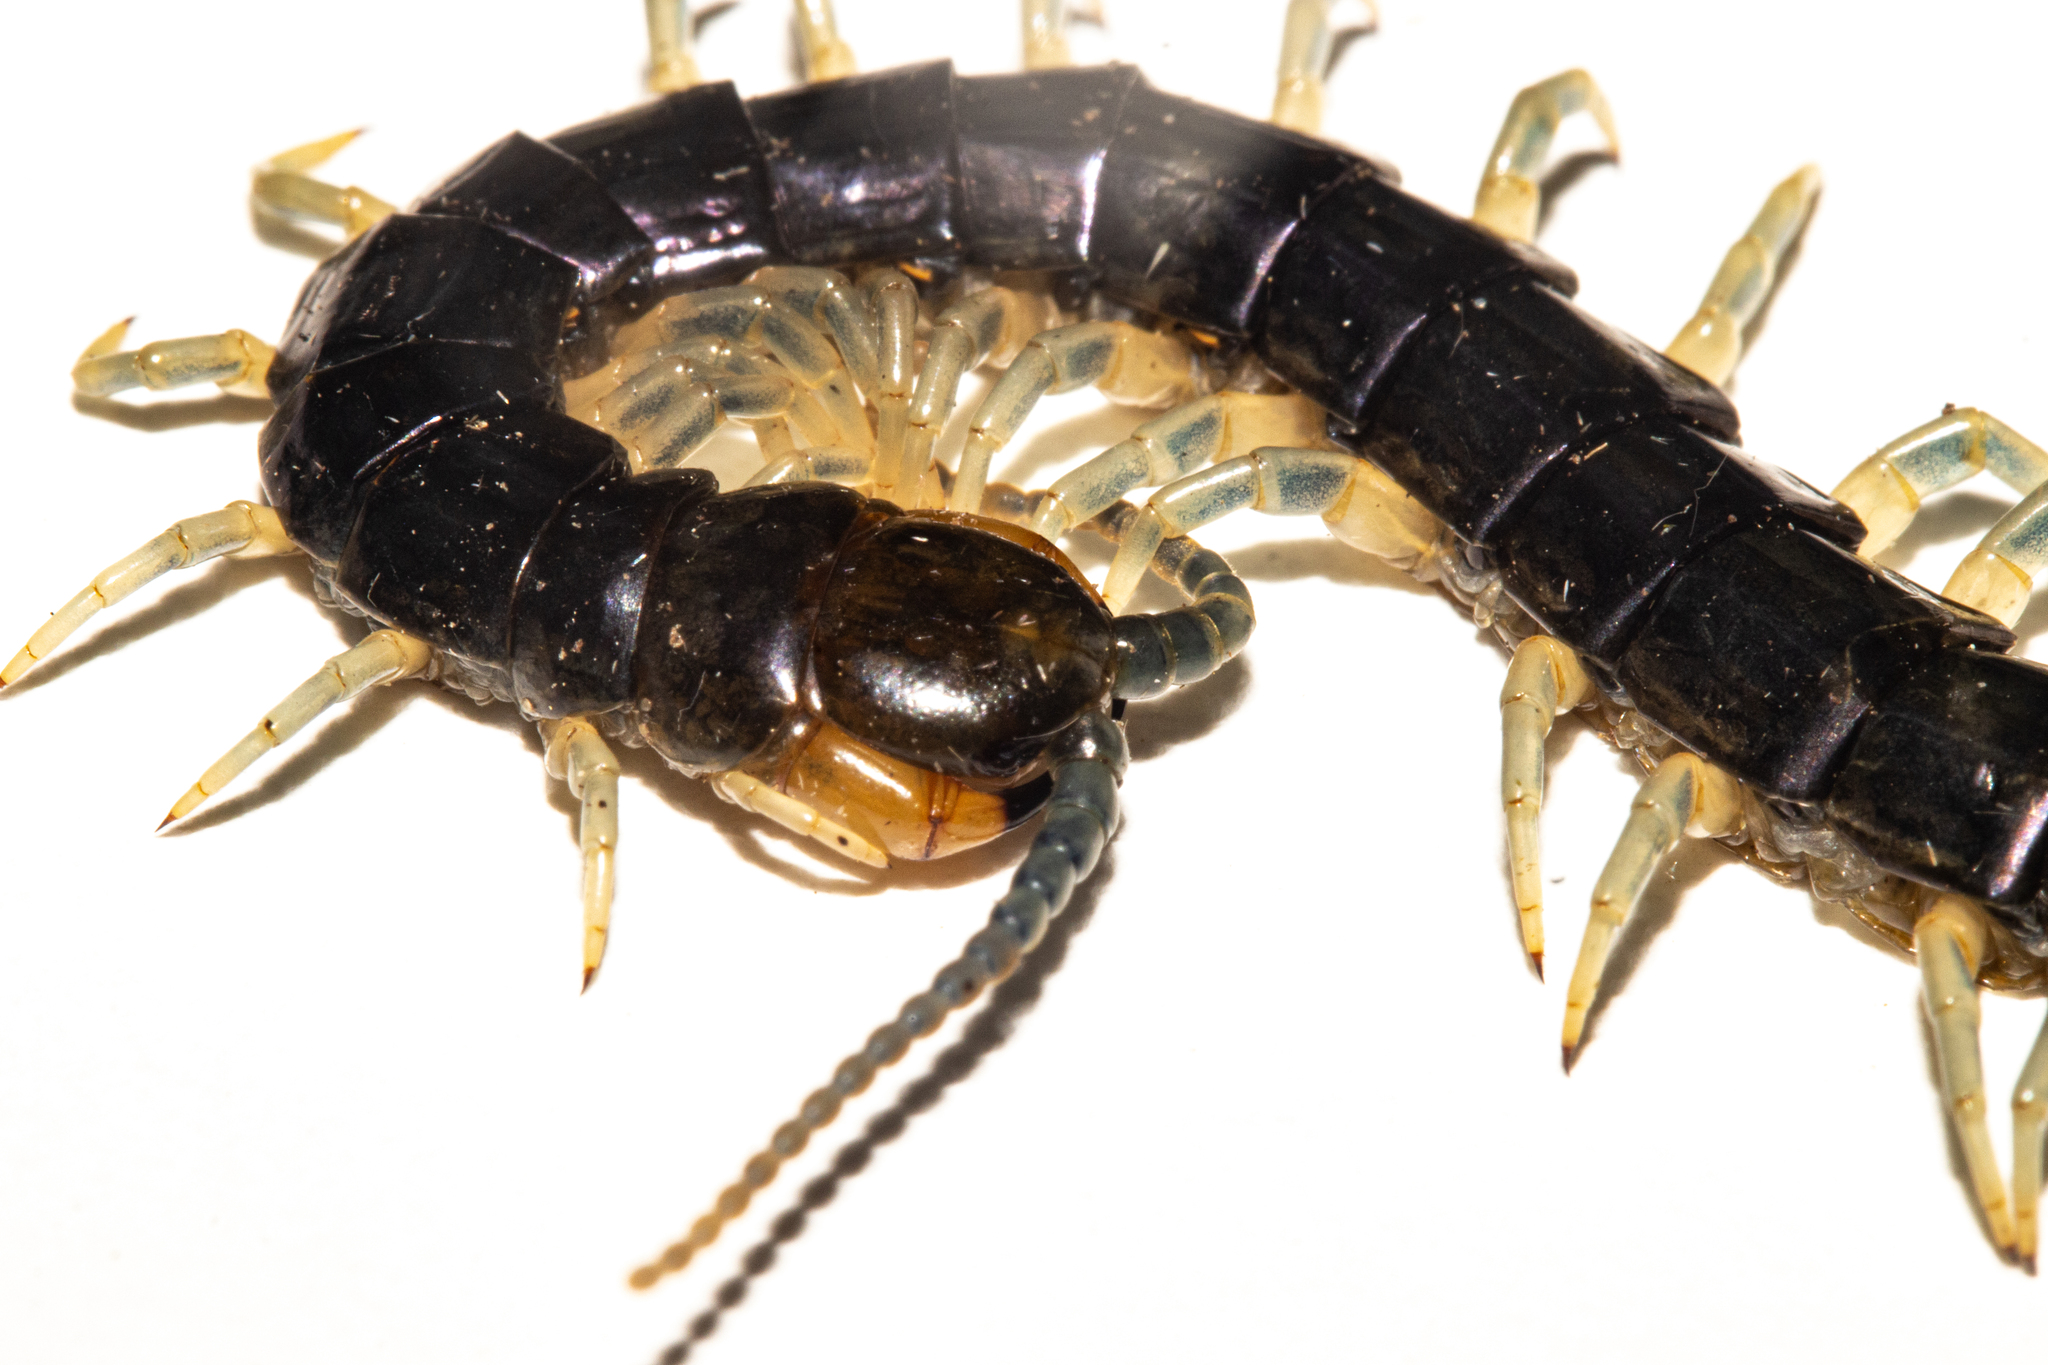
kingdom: Animalia
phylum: Arthropoda
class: Chilopoda
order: Scolopendromorpha
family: Scolopendridae
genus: Cormocephalus
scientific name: Cormocephalus rubriceps
